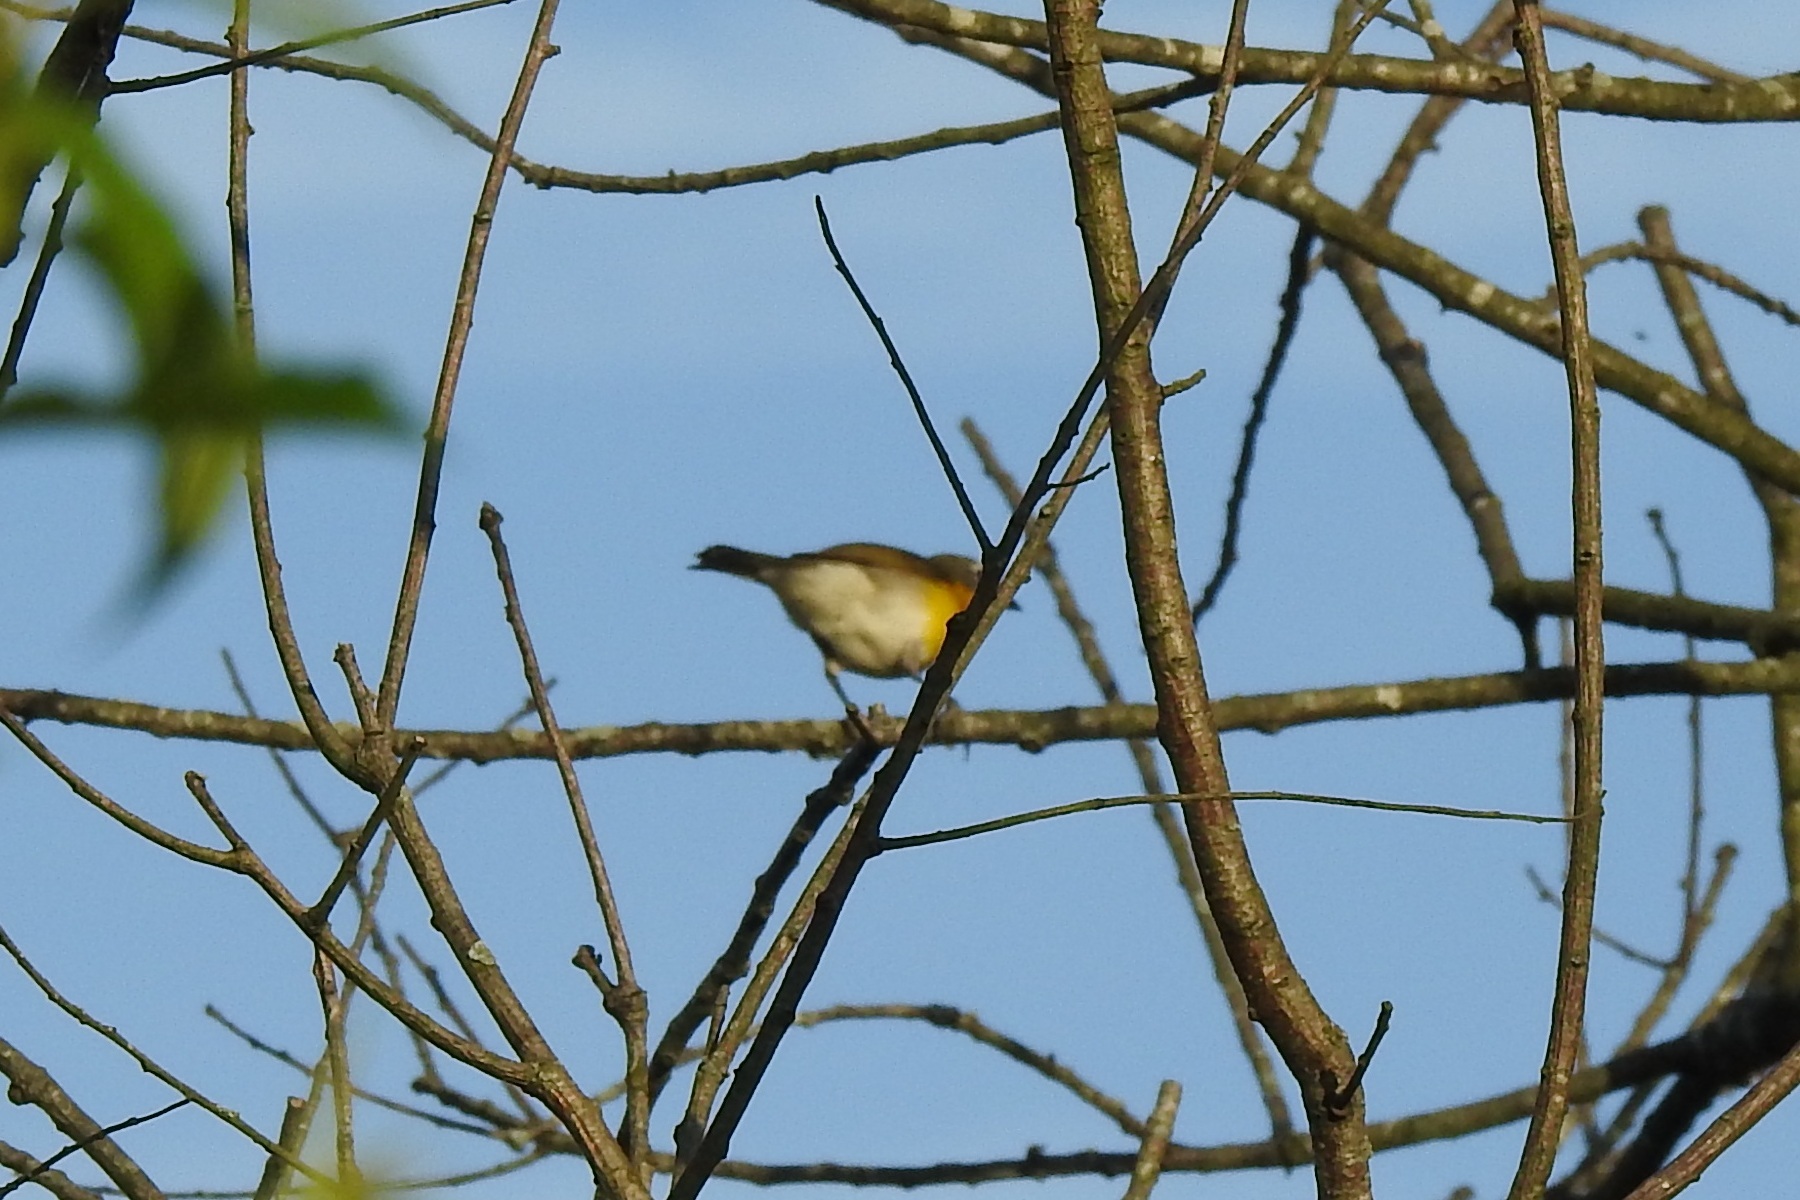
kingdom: Animalia
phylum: Chordata
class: Aves
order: Passeriformes
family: Parulidae
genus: Icteria
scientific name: Icteria virens
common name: Yellow-breasted chat
